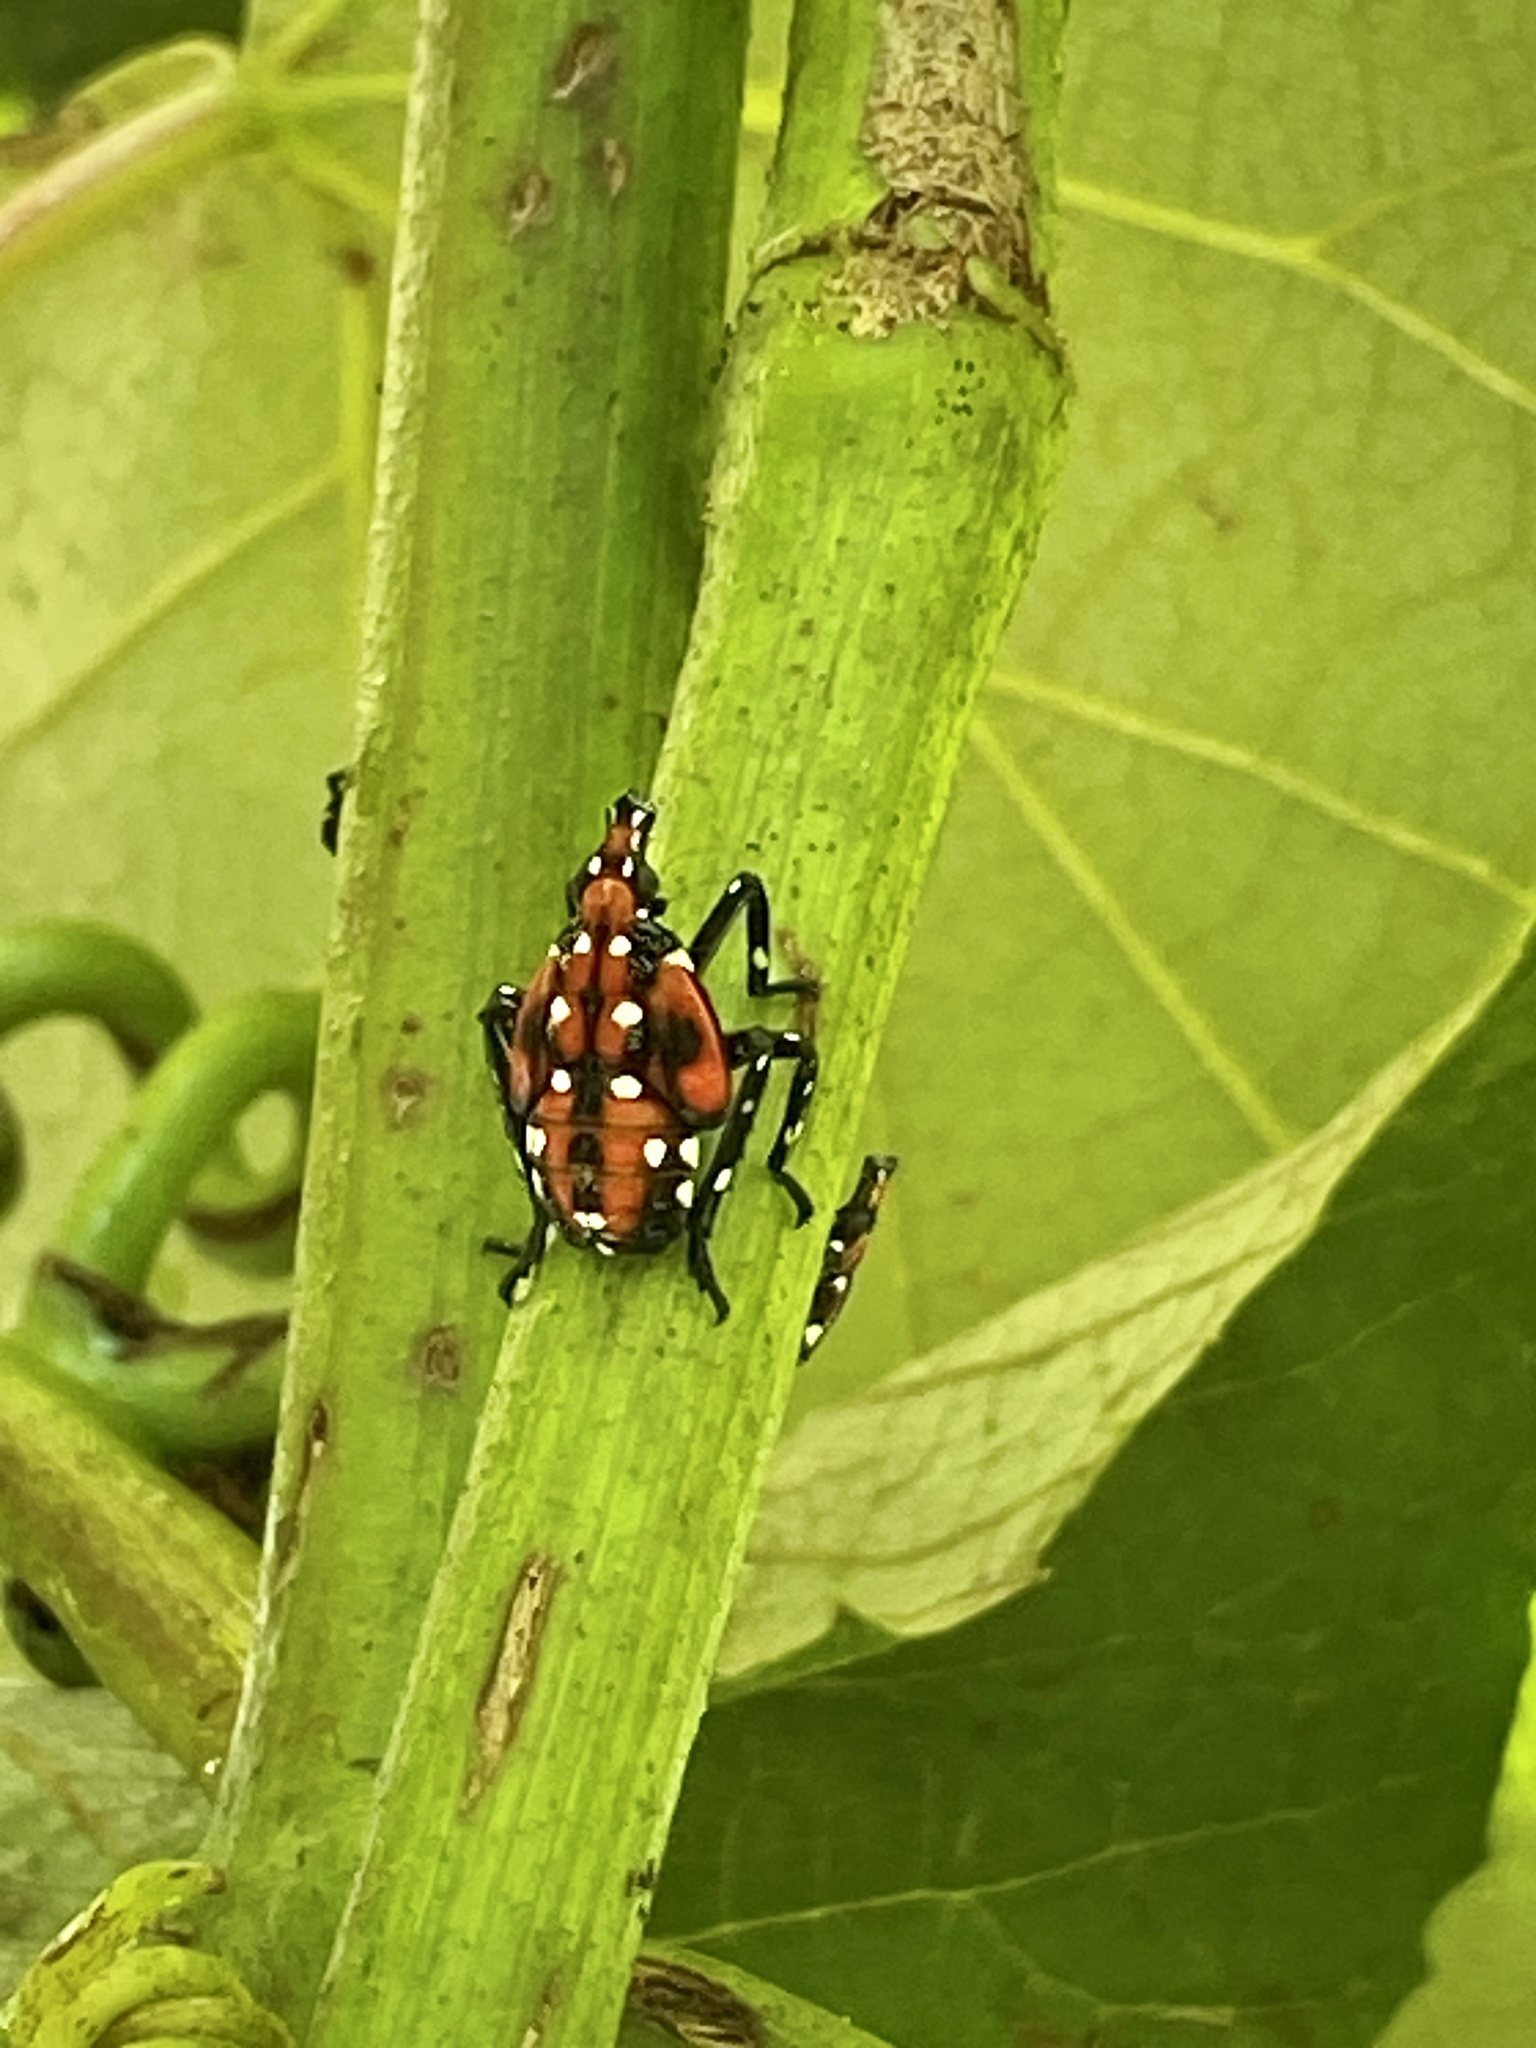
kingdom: Animalia
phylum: Arthropoda
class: Insecta
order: Hemiptera
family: Fulgoridae
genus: Lycorma
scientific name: Lycorma delicatula
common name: Spotted lanternfly
